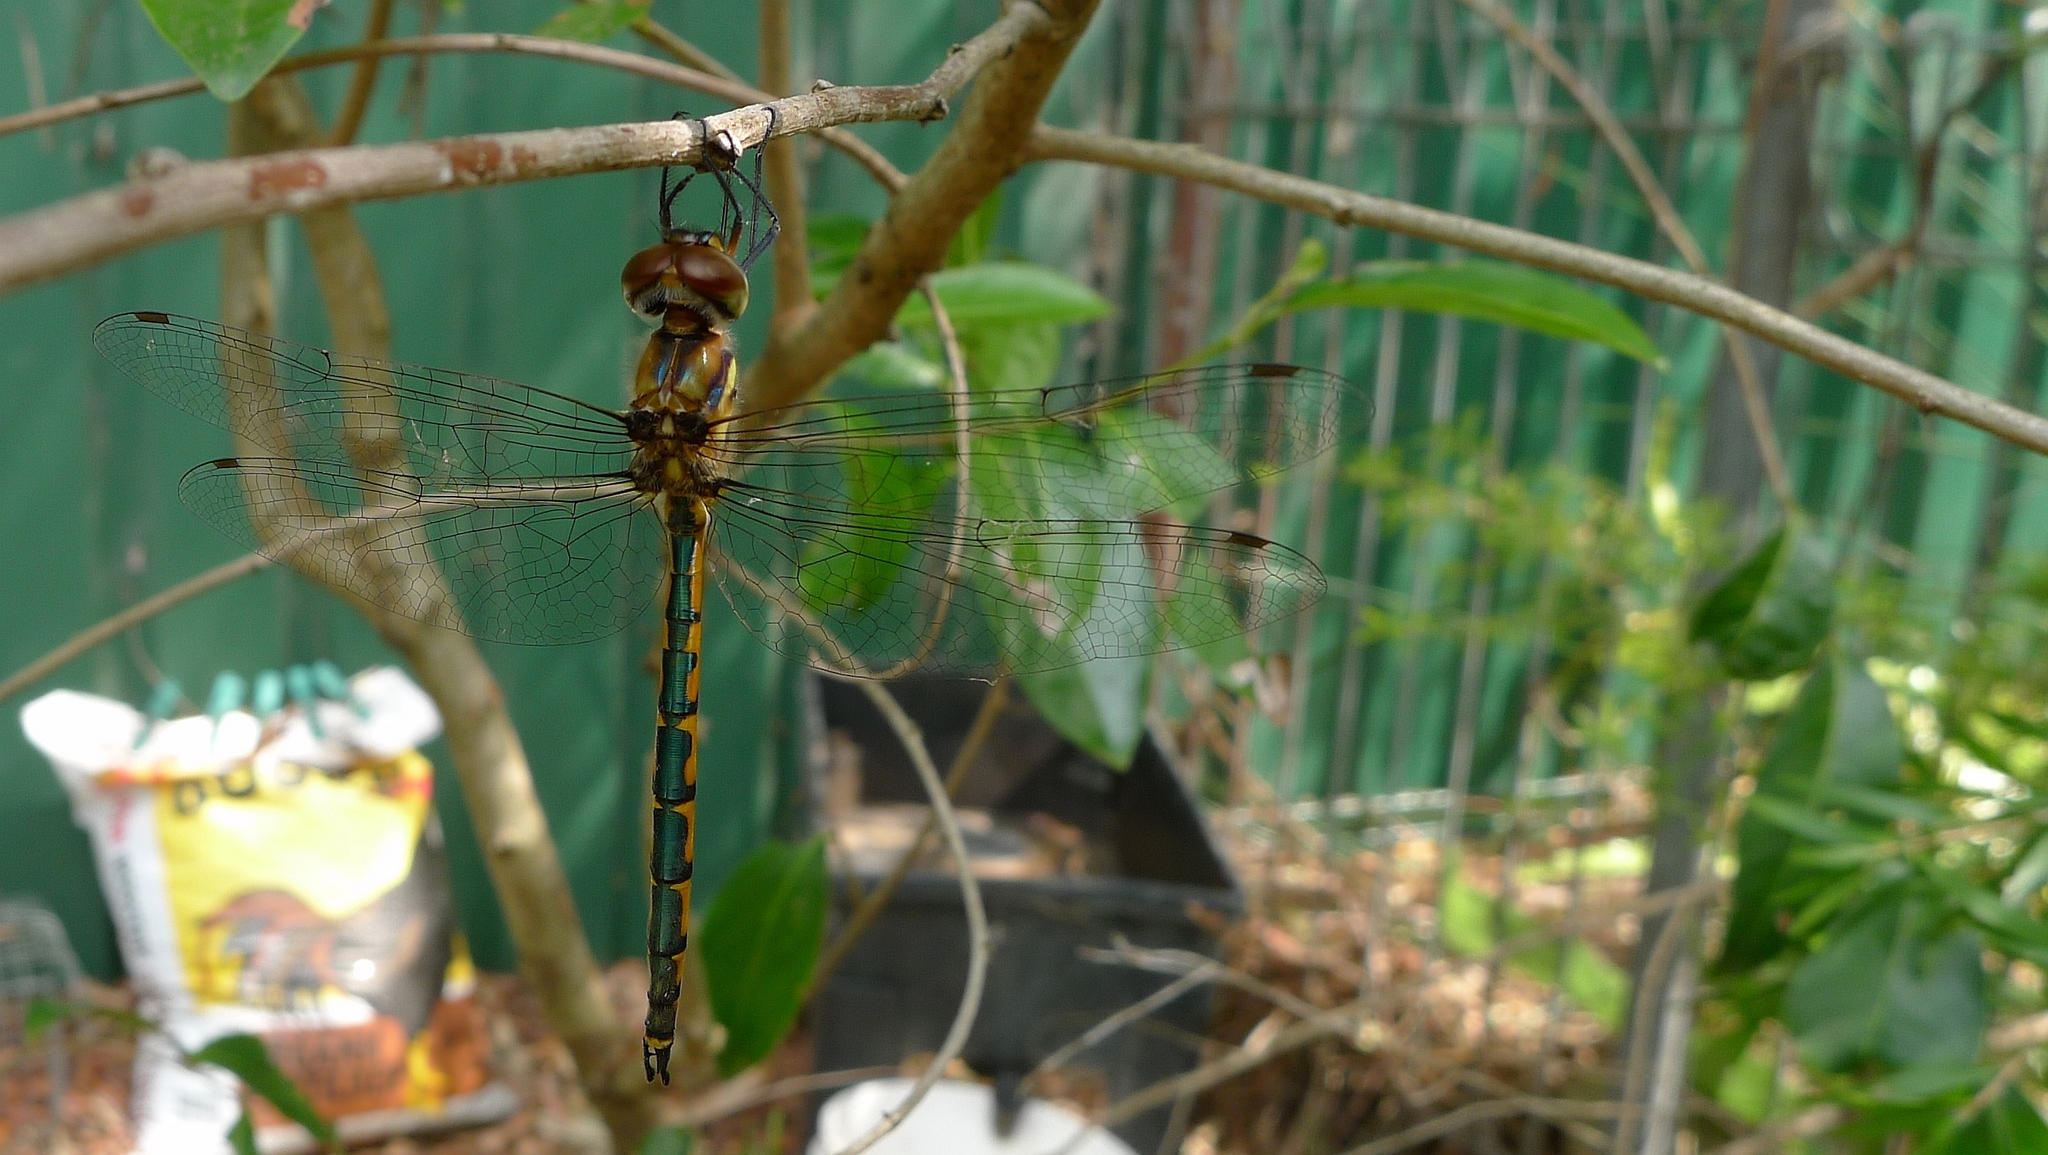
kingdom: Animalia
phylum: Arthropoda
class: Insecta
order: Odonata
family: Corduliidae
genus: Hemicordulia
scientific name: Hemicordulia australiae
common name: Sentry dragonfly
